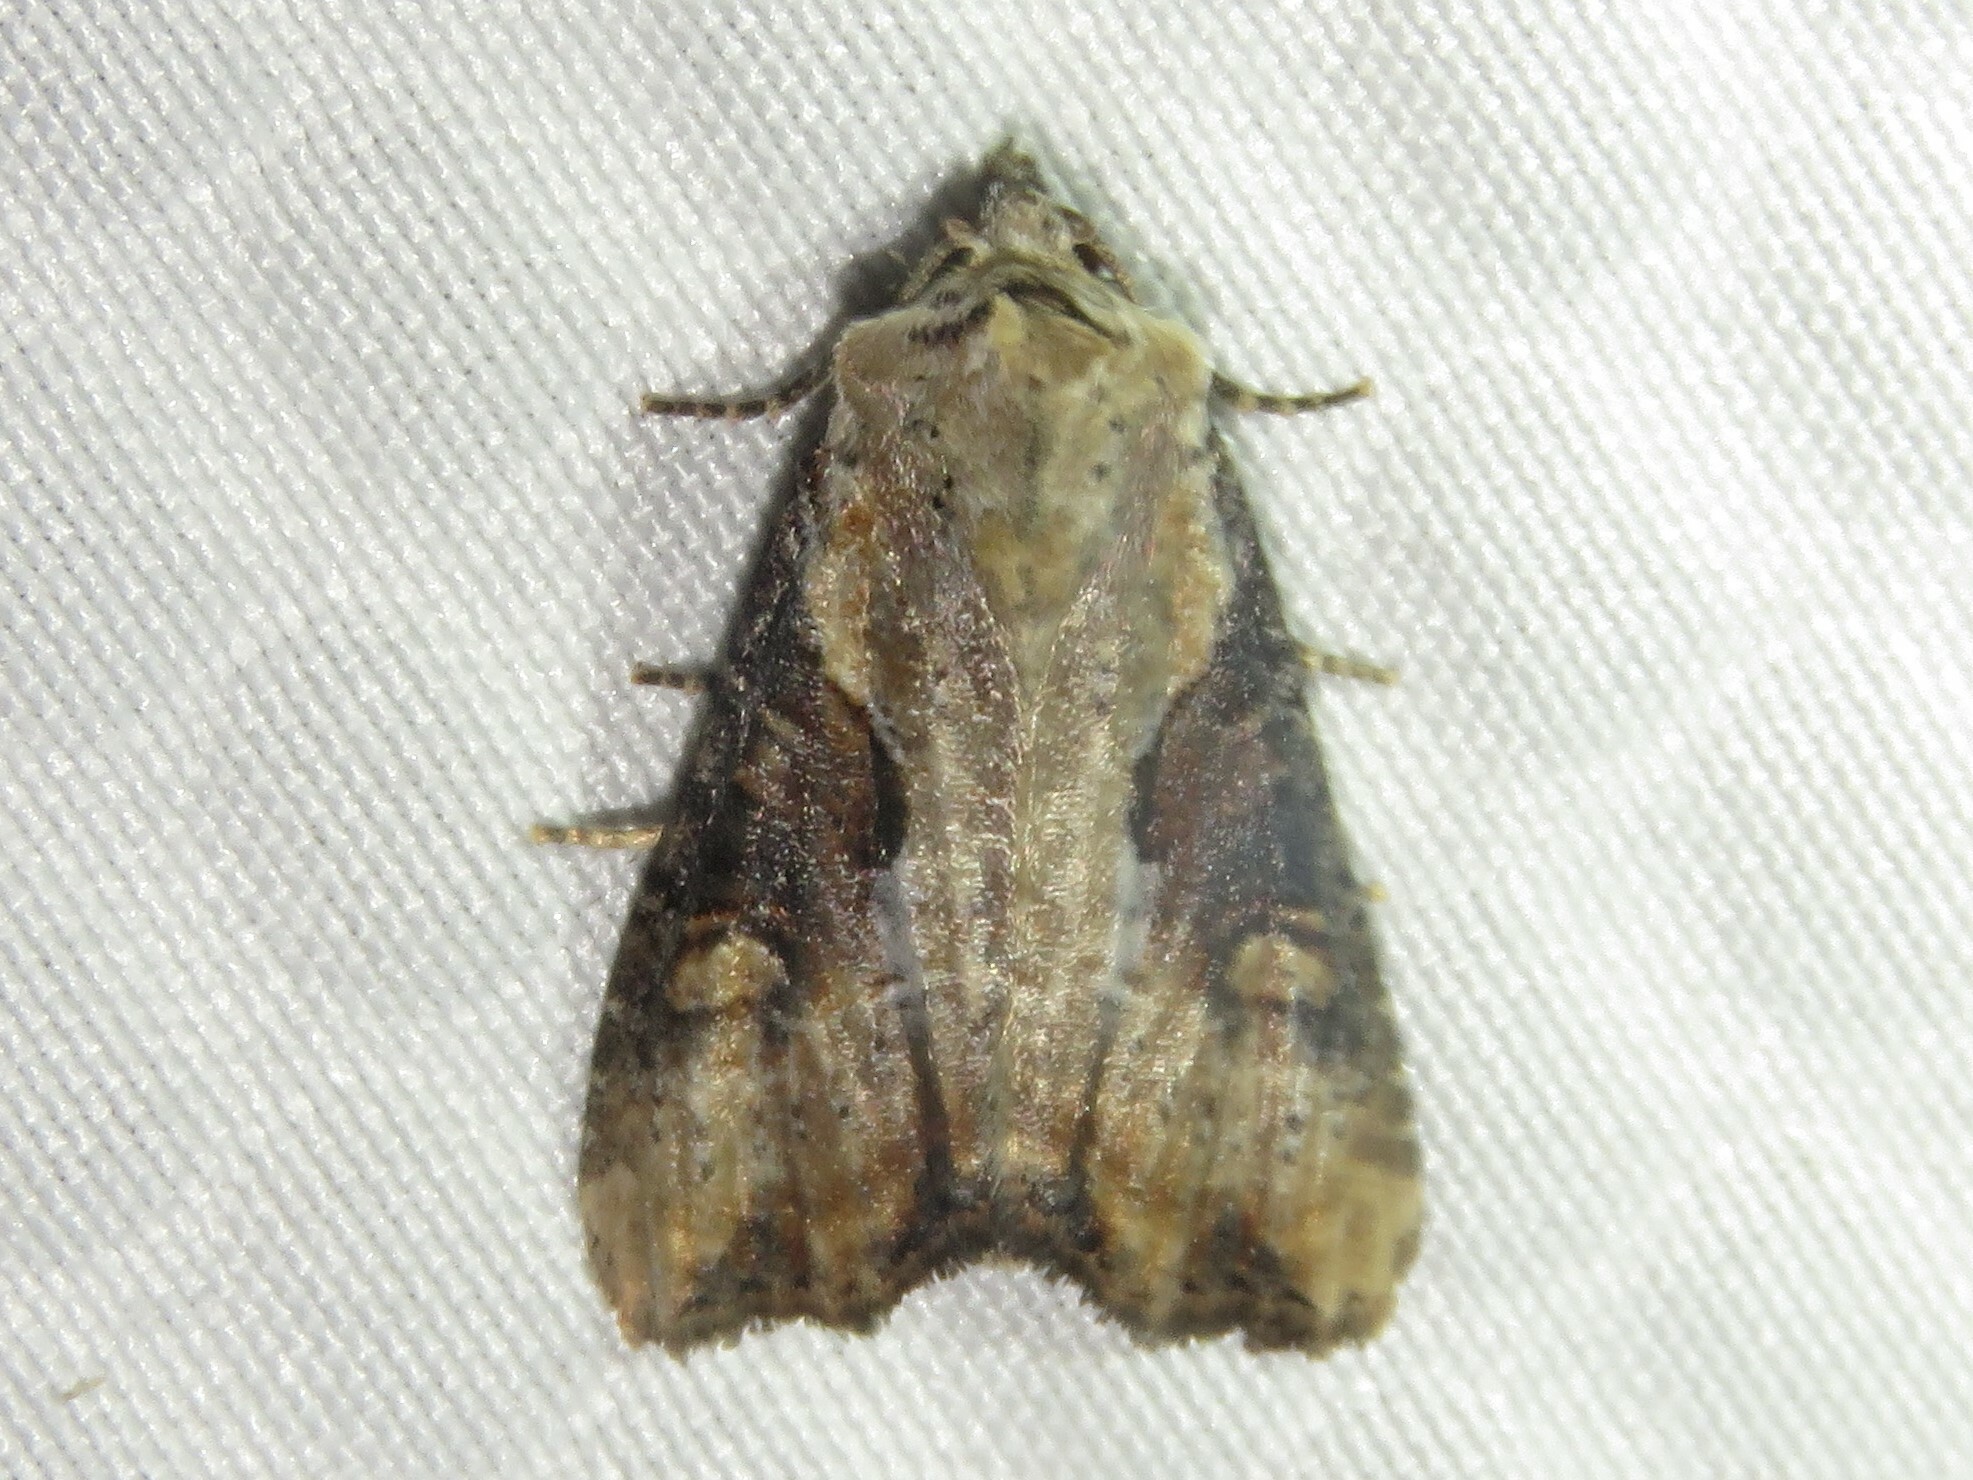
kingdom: Animalia
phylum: Arthropoda
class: Insecta
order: Lepidoptera
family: Noctuidae
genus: Lateroligia
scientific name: Lateroligia ophiogramma
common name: Double lobed
